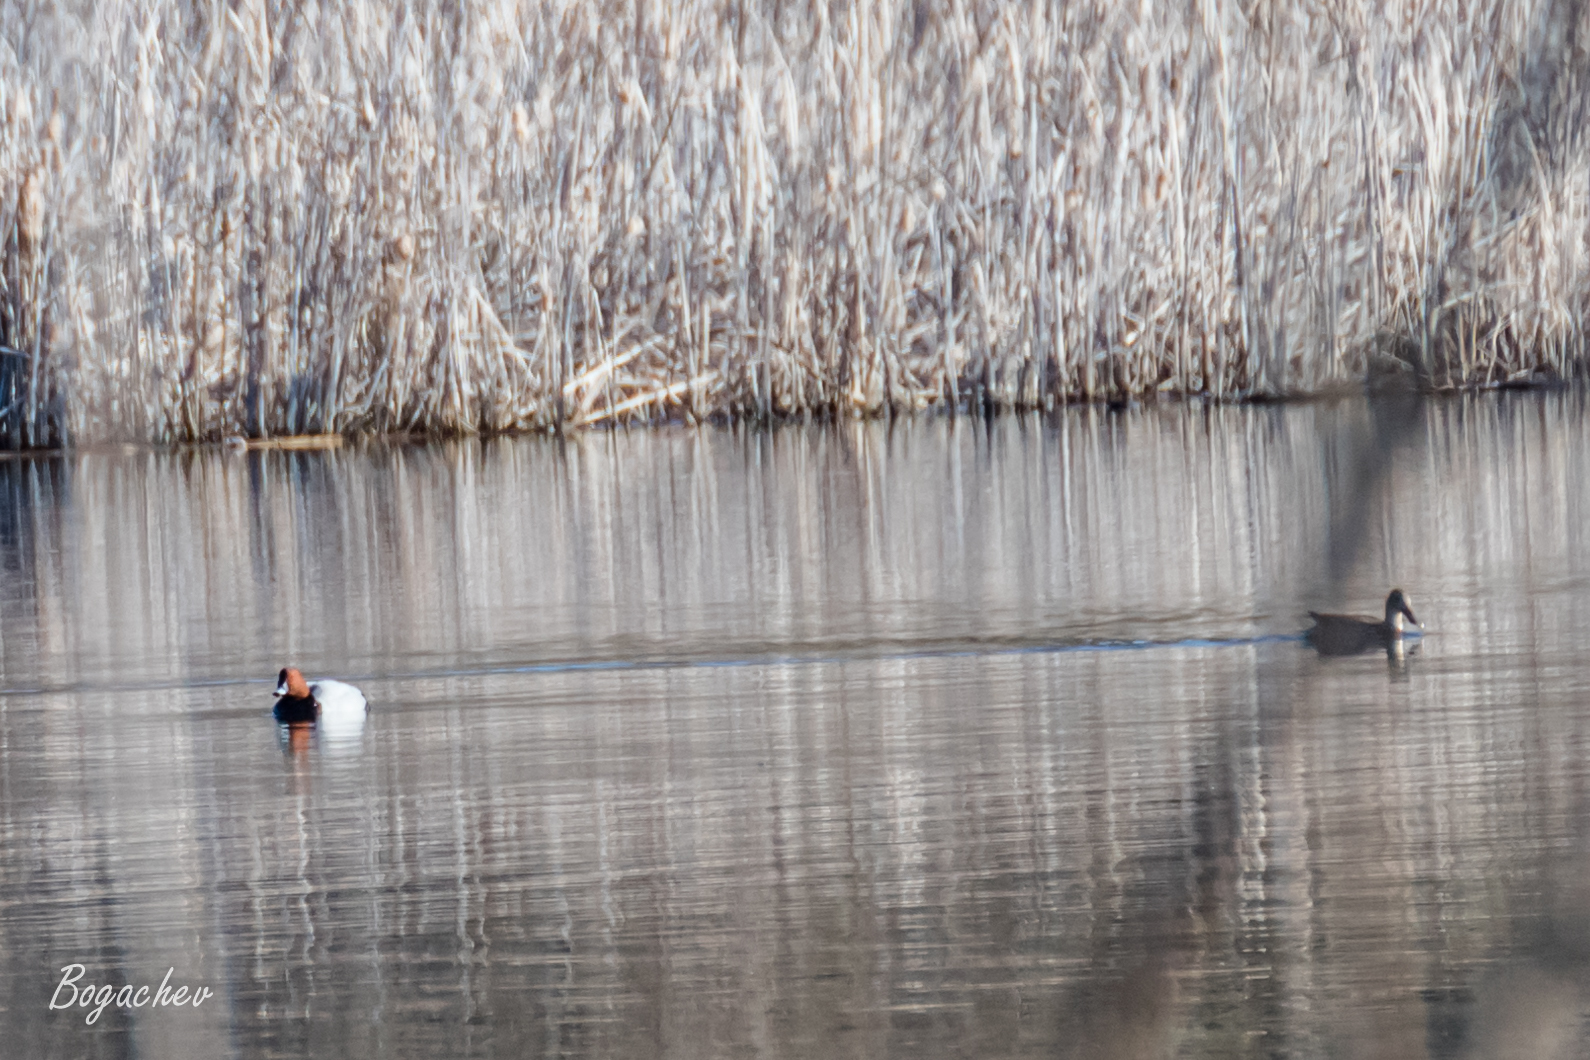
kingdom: Animalia
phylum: Chordata
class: Aves
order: Anseriformes
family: Anatidae
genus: Aythya
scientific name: Aythya ferina
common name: Common pochard
